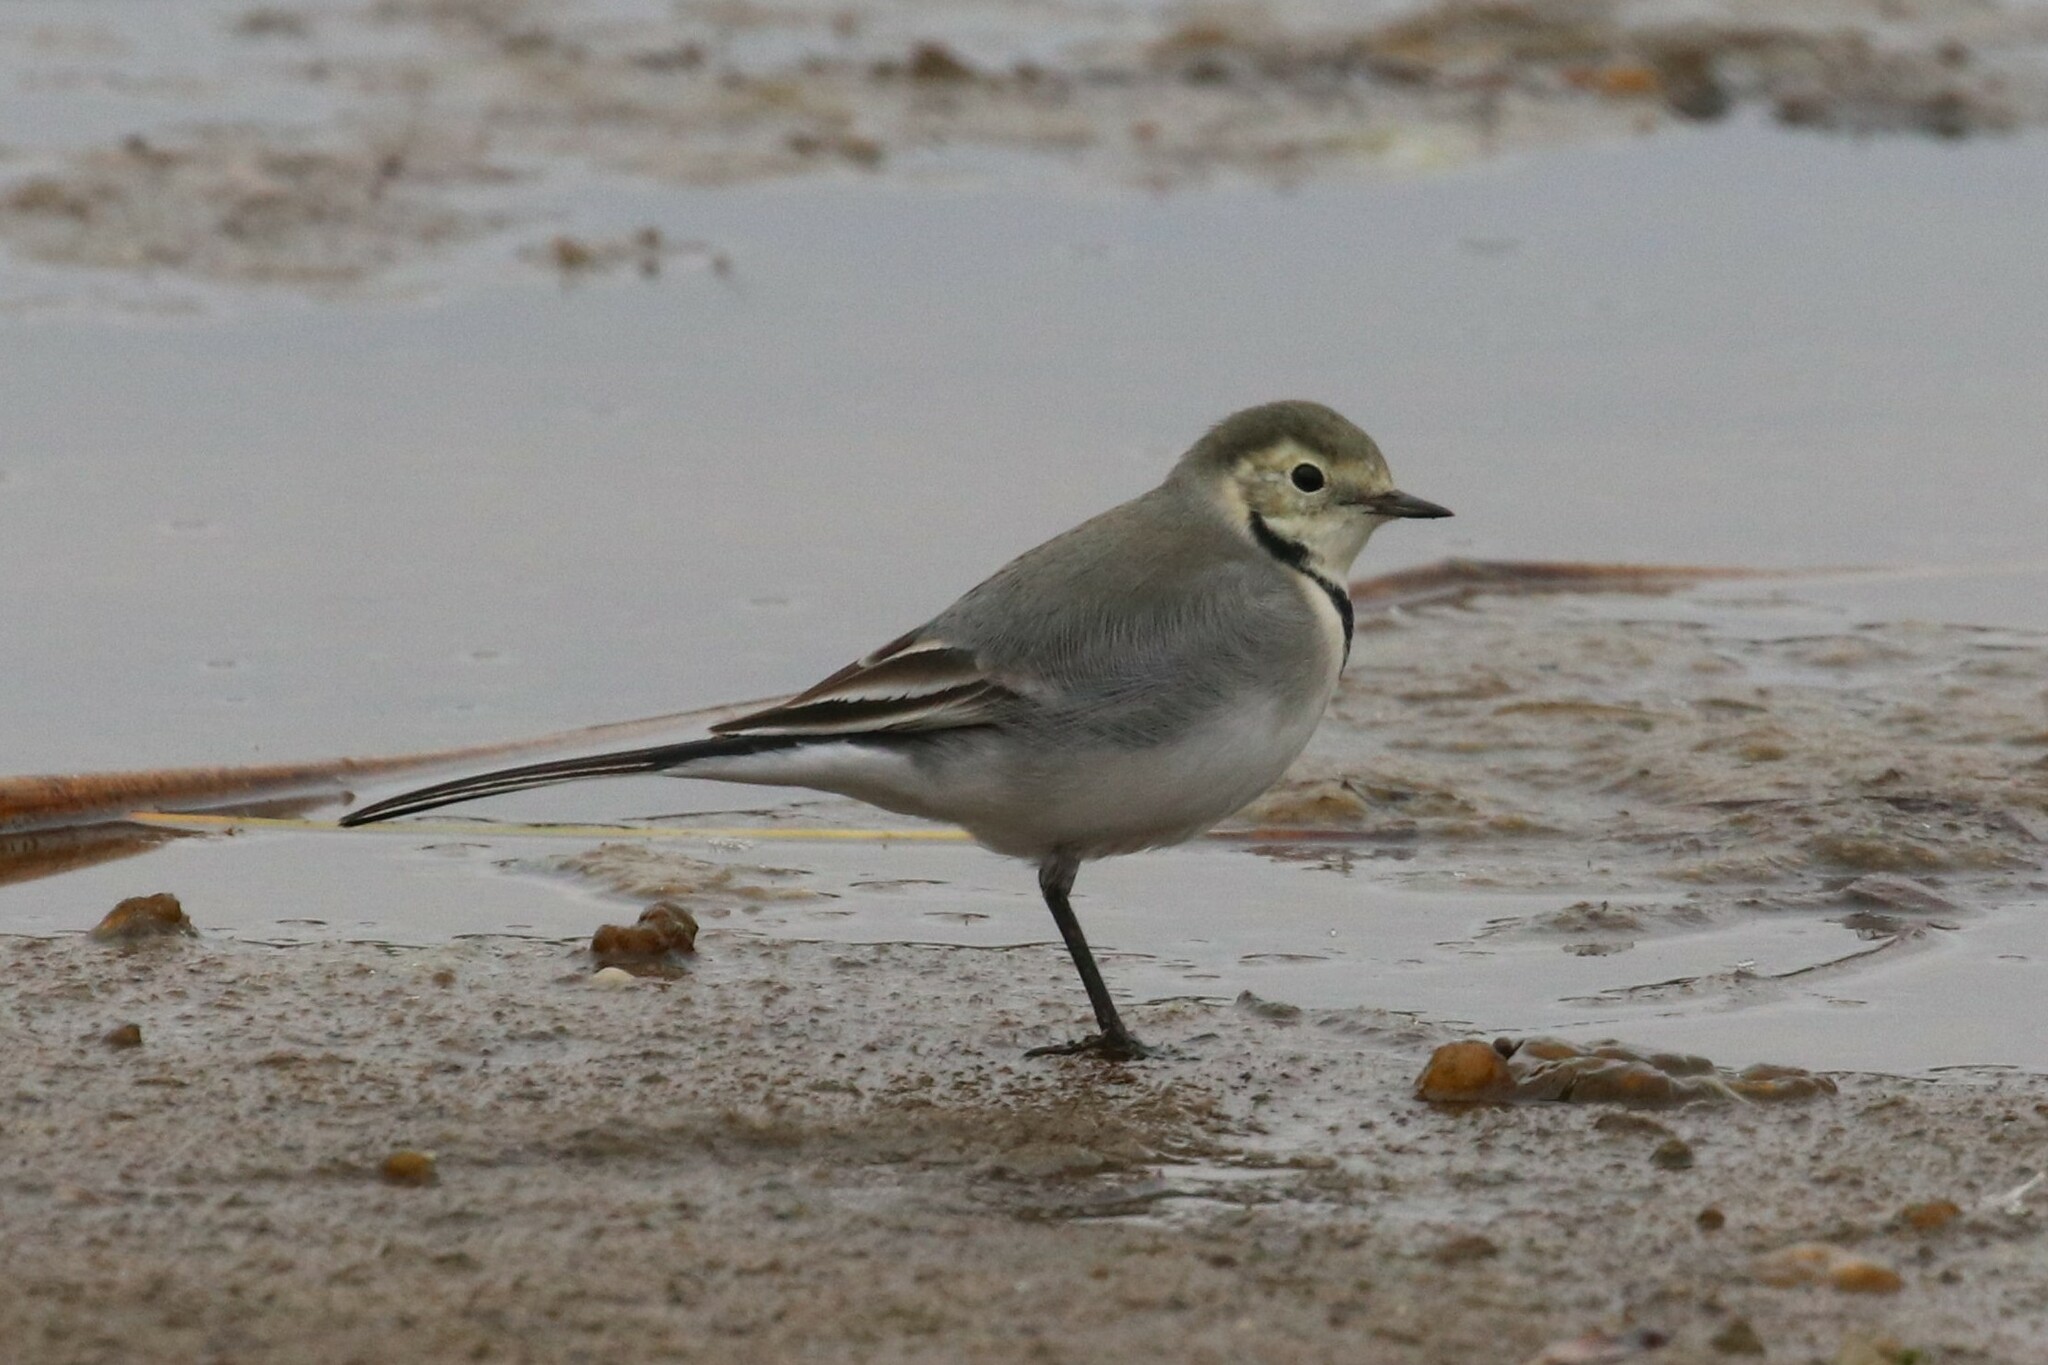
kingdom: Animalia
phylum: Chordata
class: Aves
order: Passeriformes
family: Motacillidae
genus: Motacilla
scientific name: Motacilla alba
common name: White wagtail
